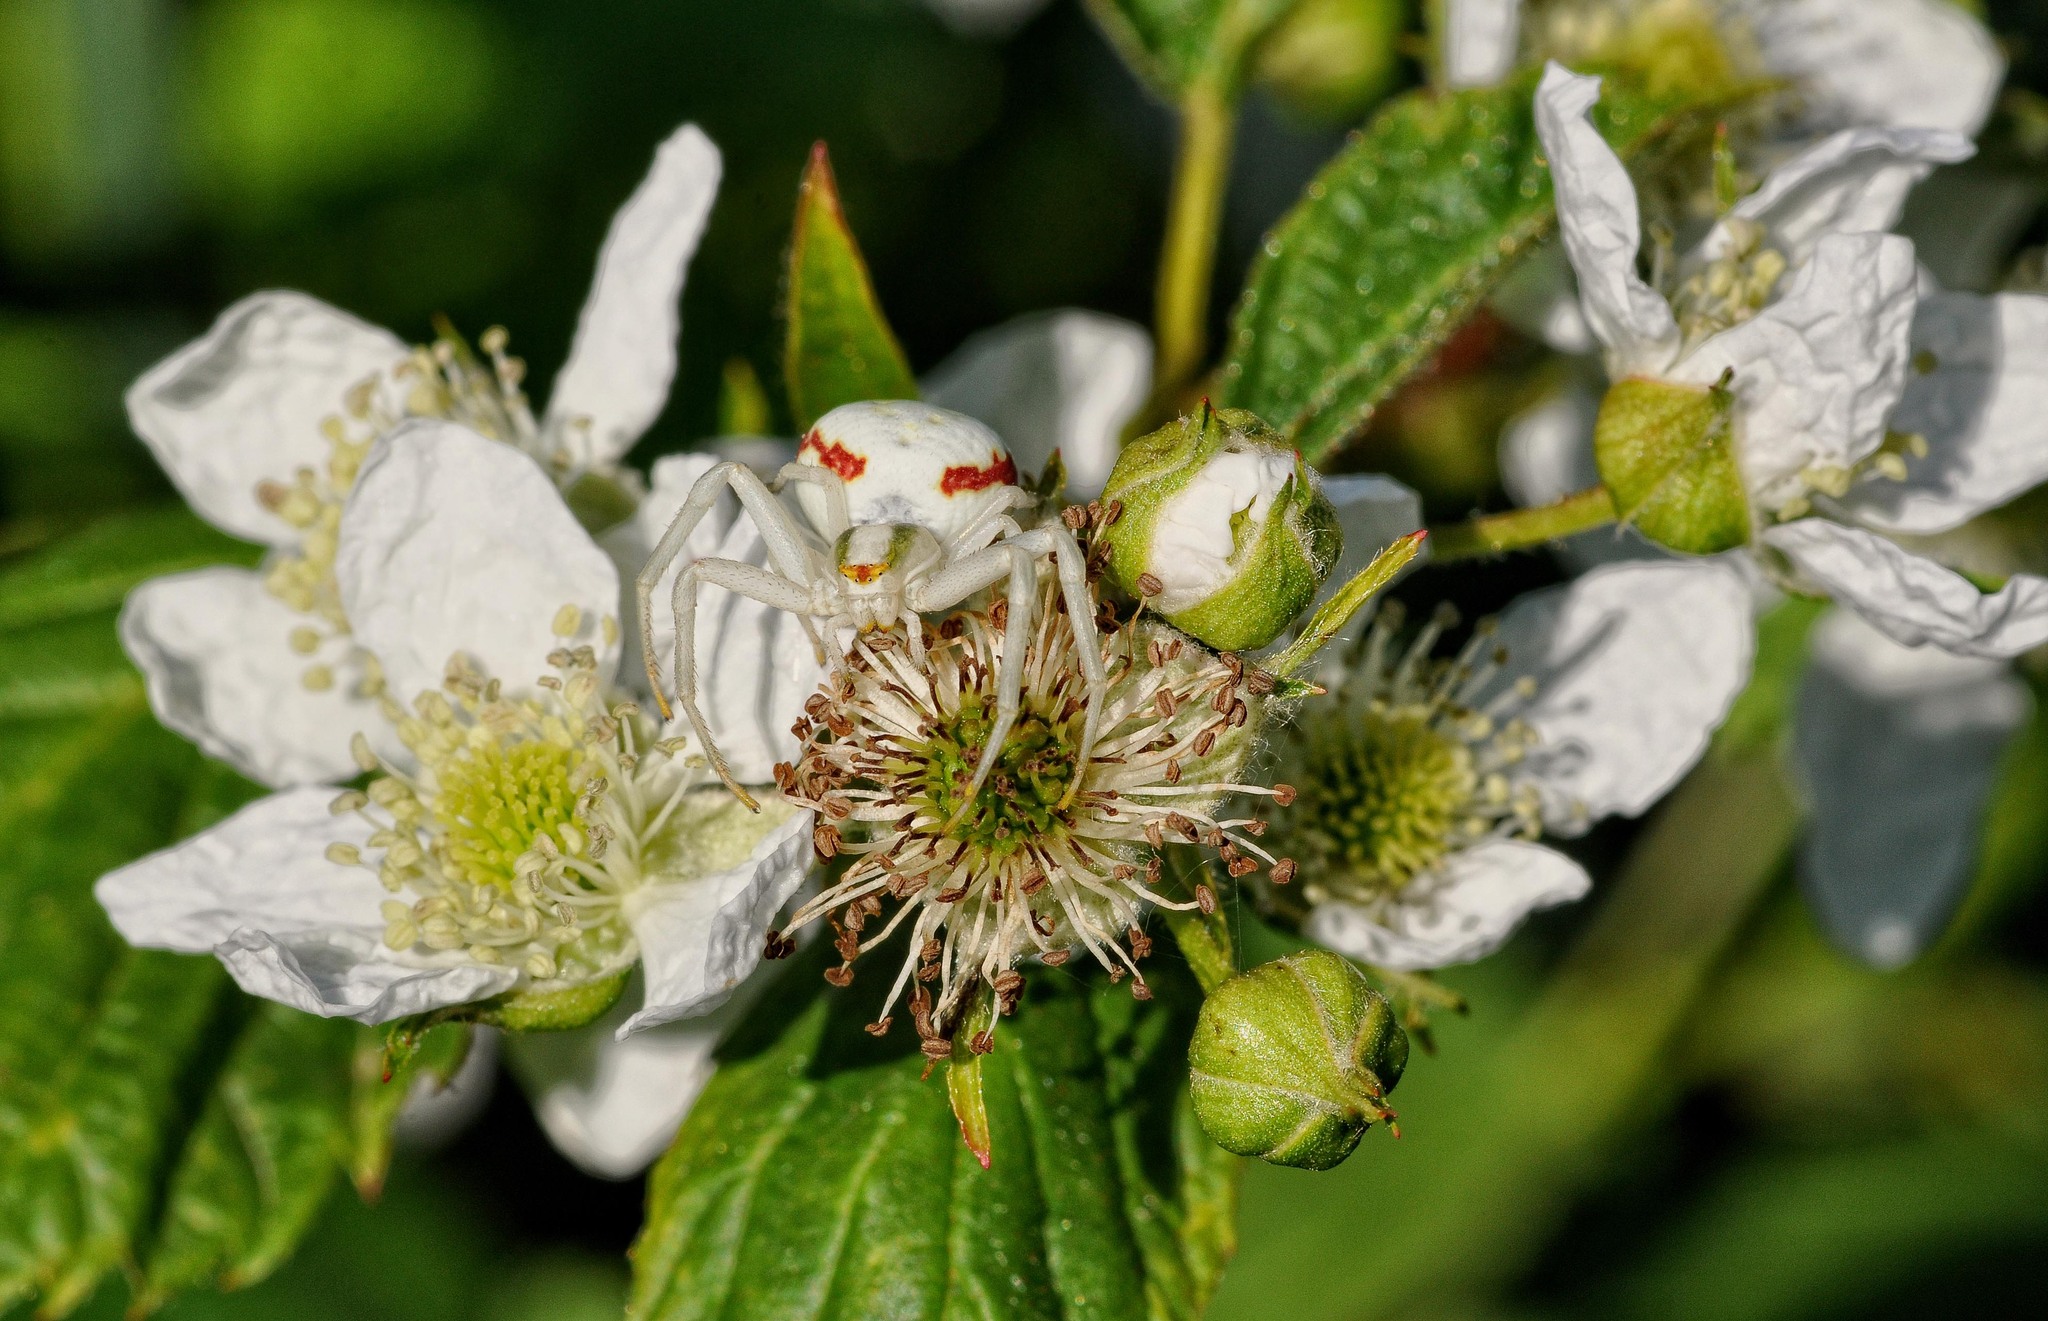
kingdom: Animalia
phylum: Arthropoda
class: Arachnida
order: Araneae
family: Thomisidae
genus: Misumena
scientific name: Misumena vatia
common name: Goldenrod crab spider
